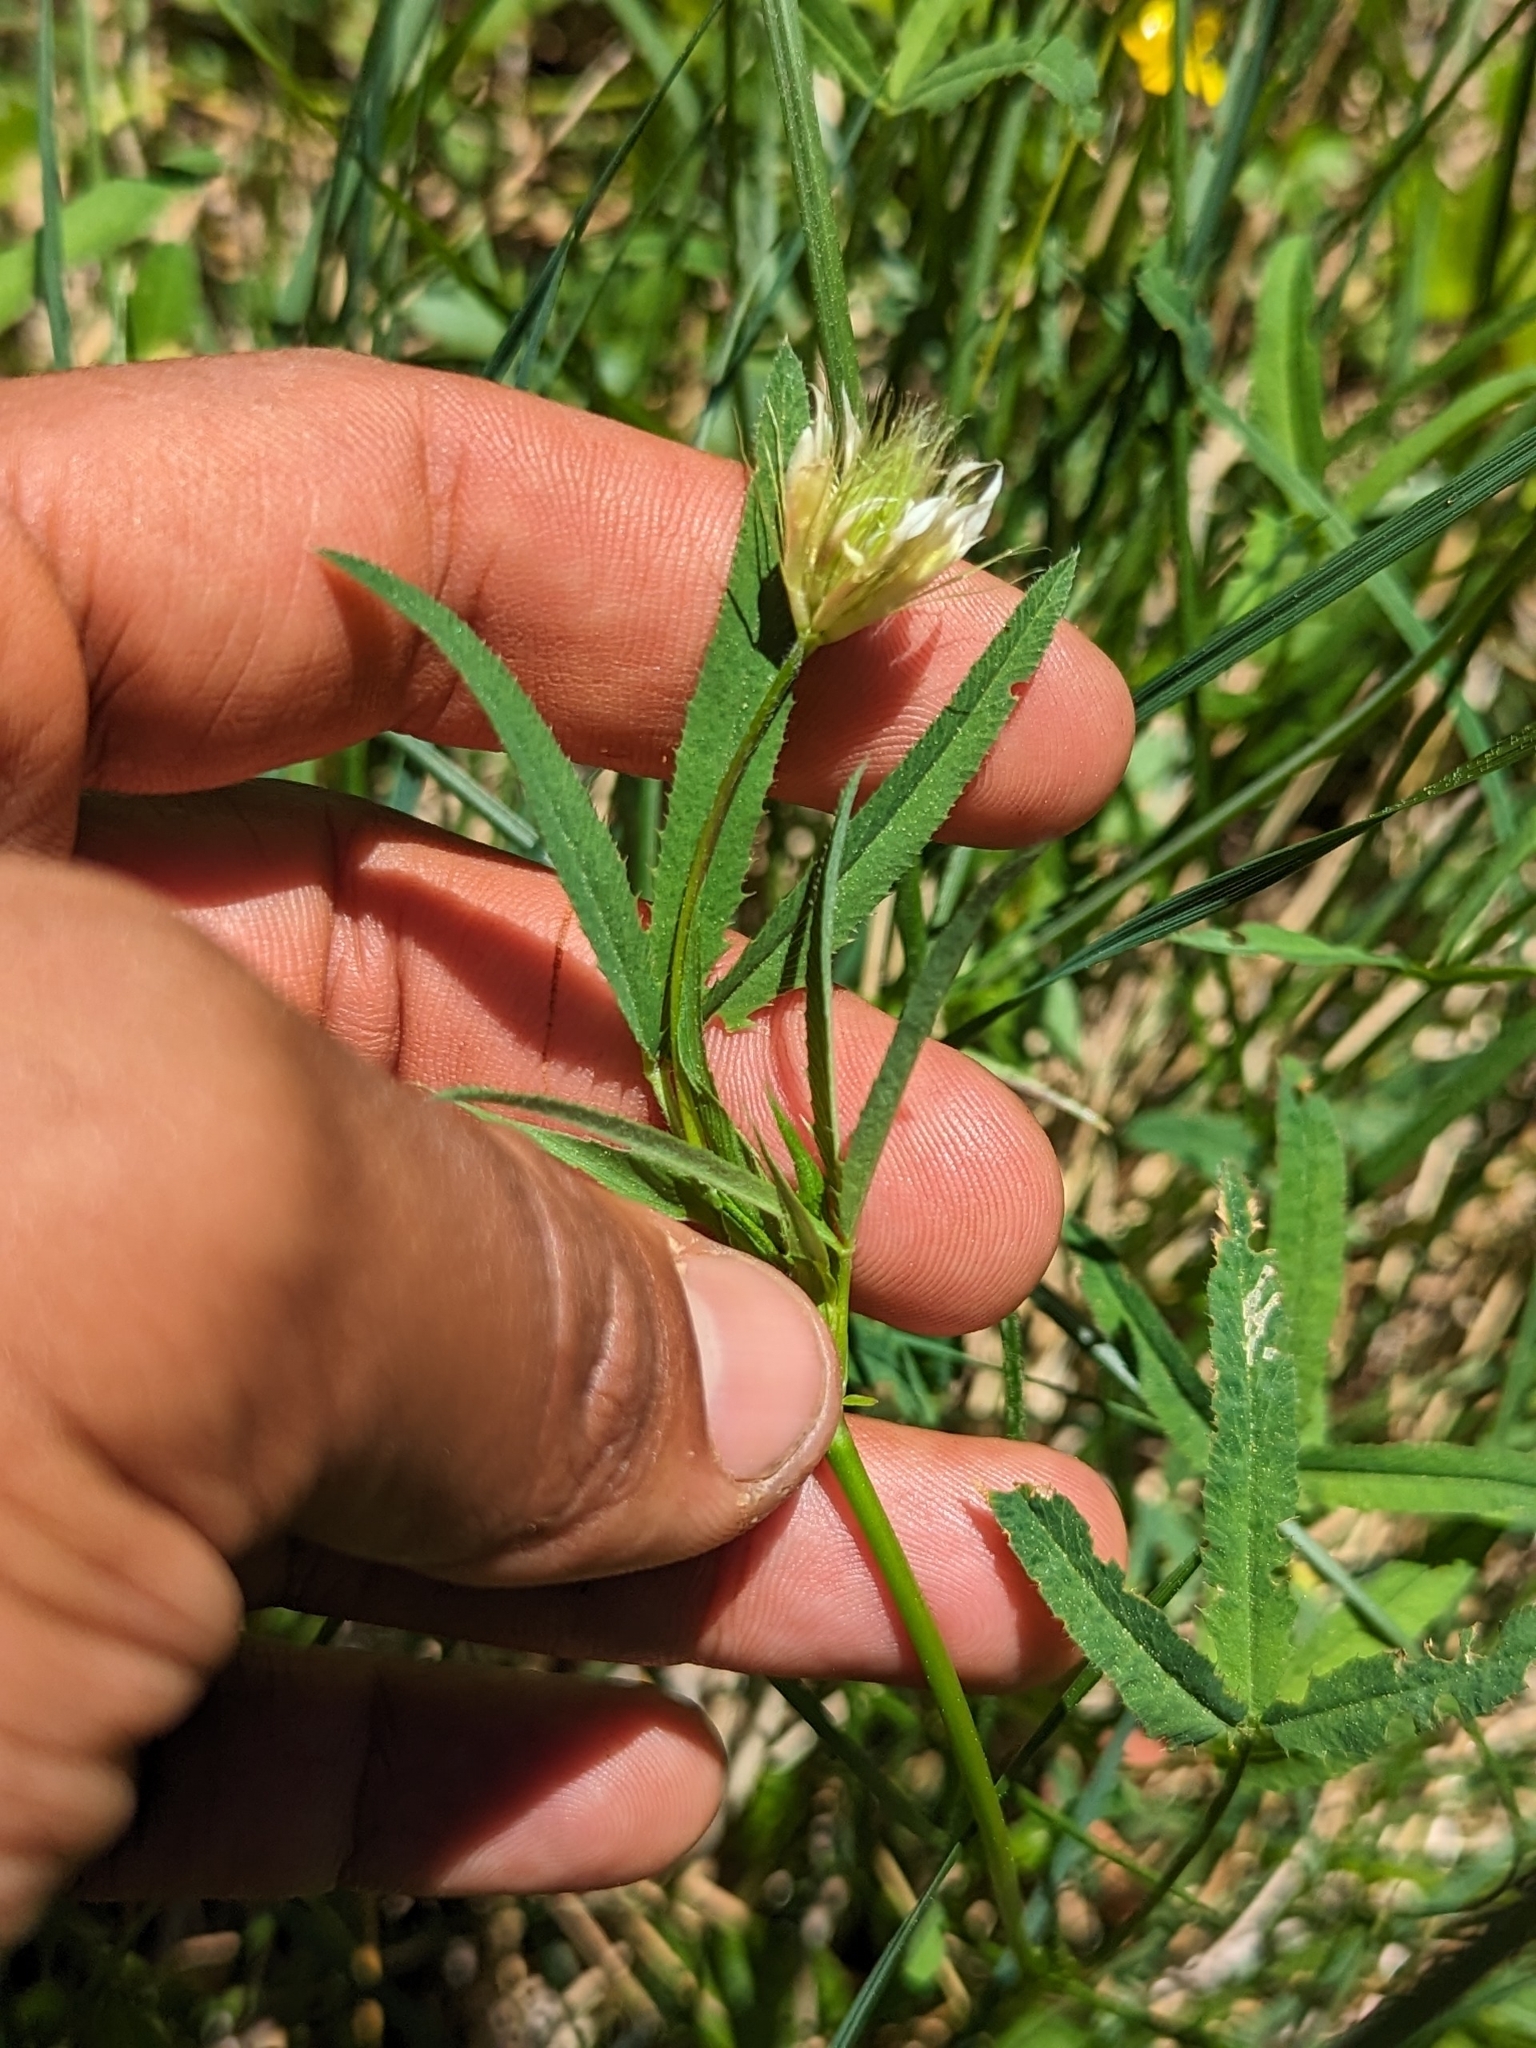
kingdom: Plantae
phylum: Tracheophyta
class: Magnoliopsida
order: Fabales
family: Fabaceae
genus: Trifolium
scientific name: Trifolium longipes
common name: Long-stalk clover
